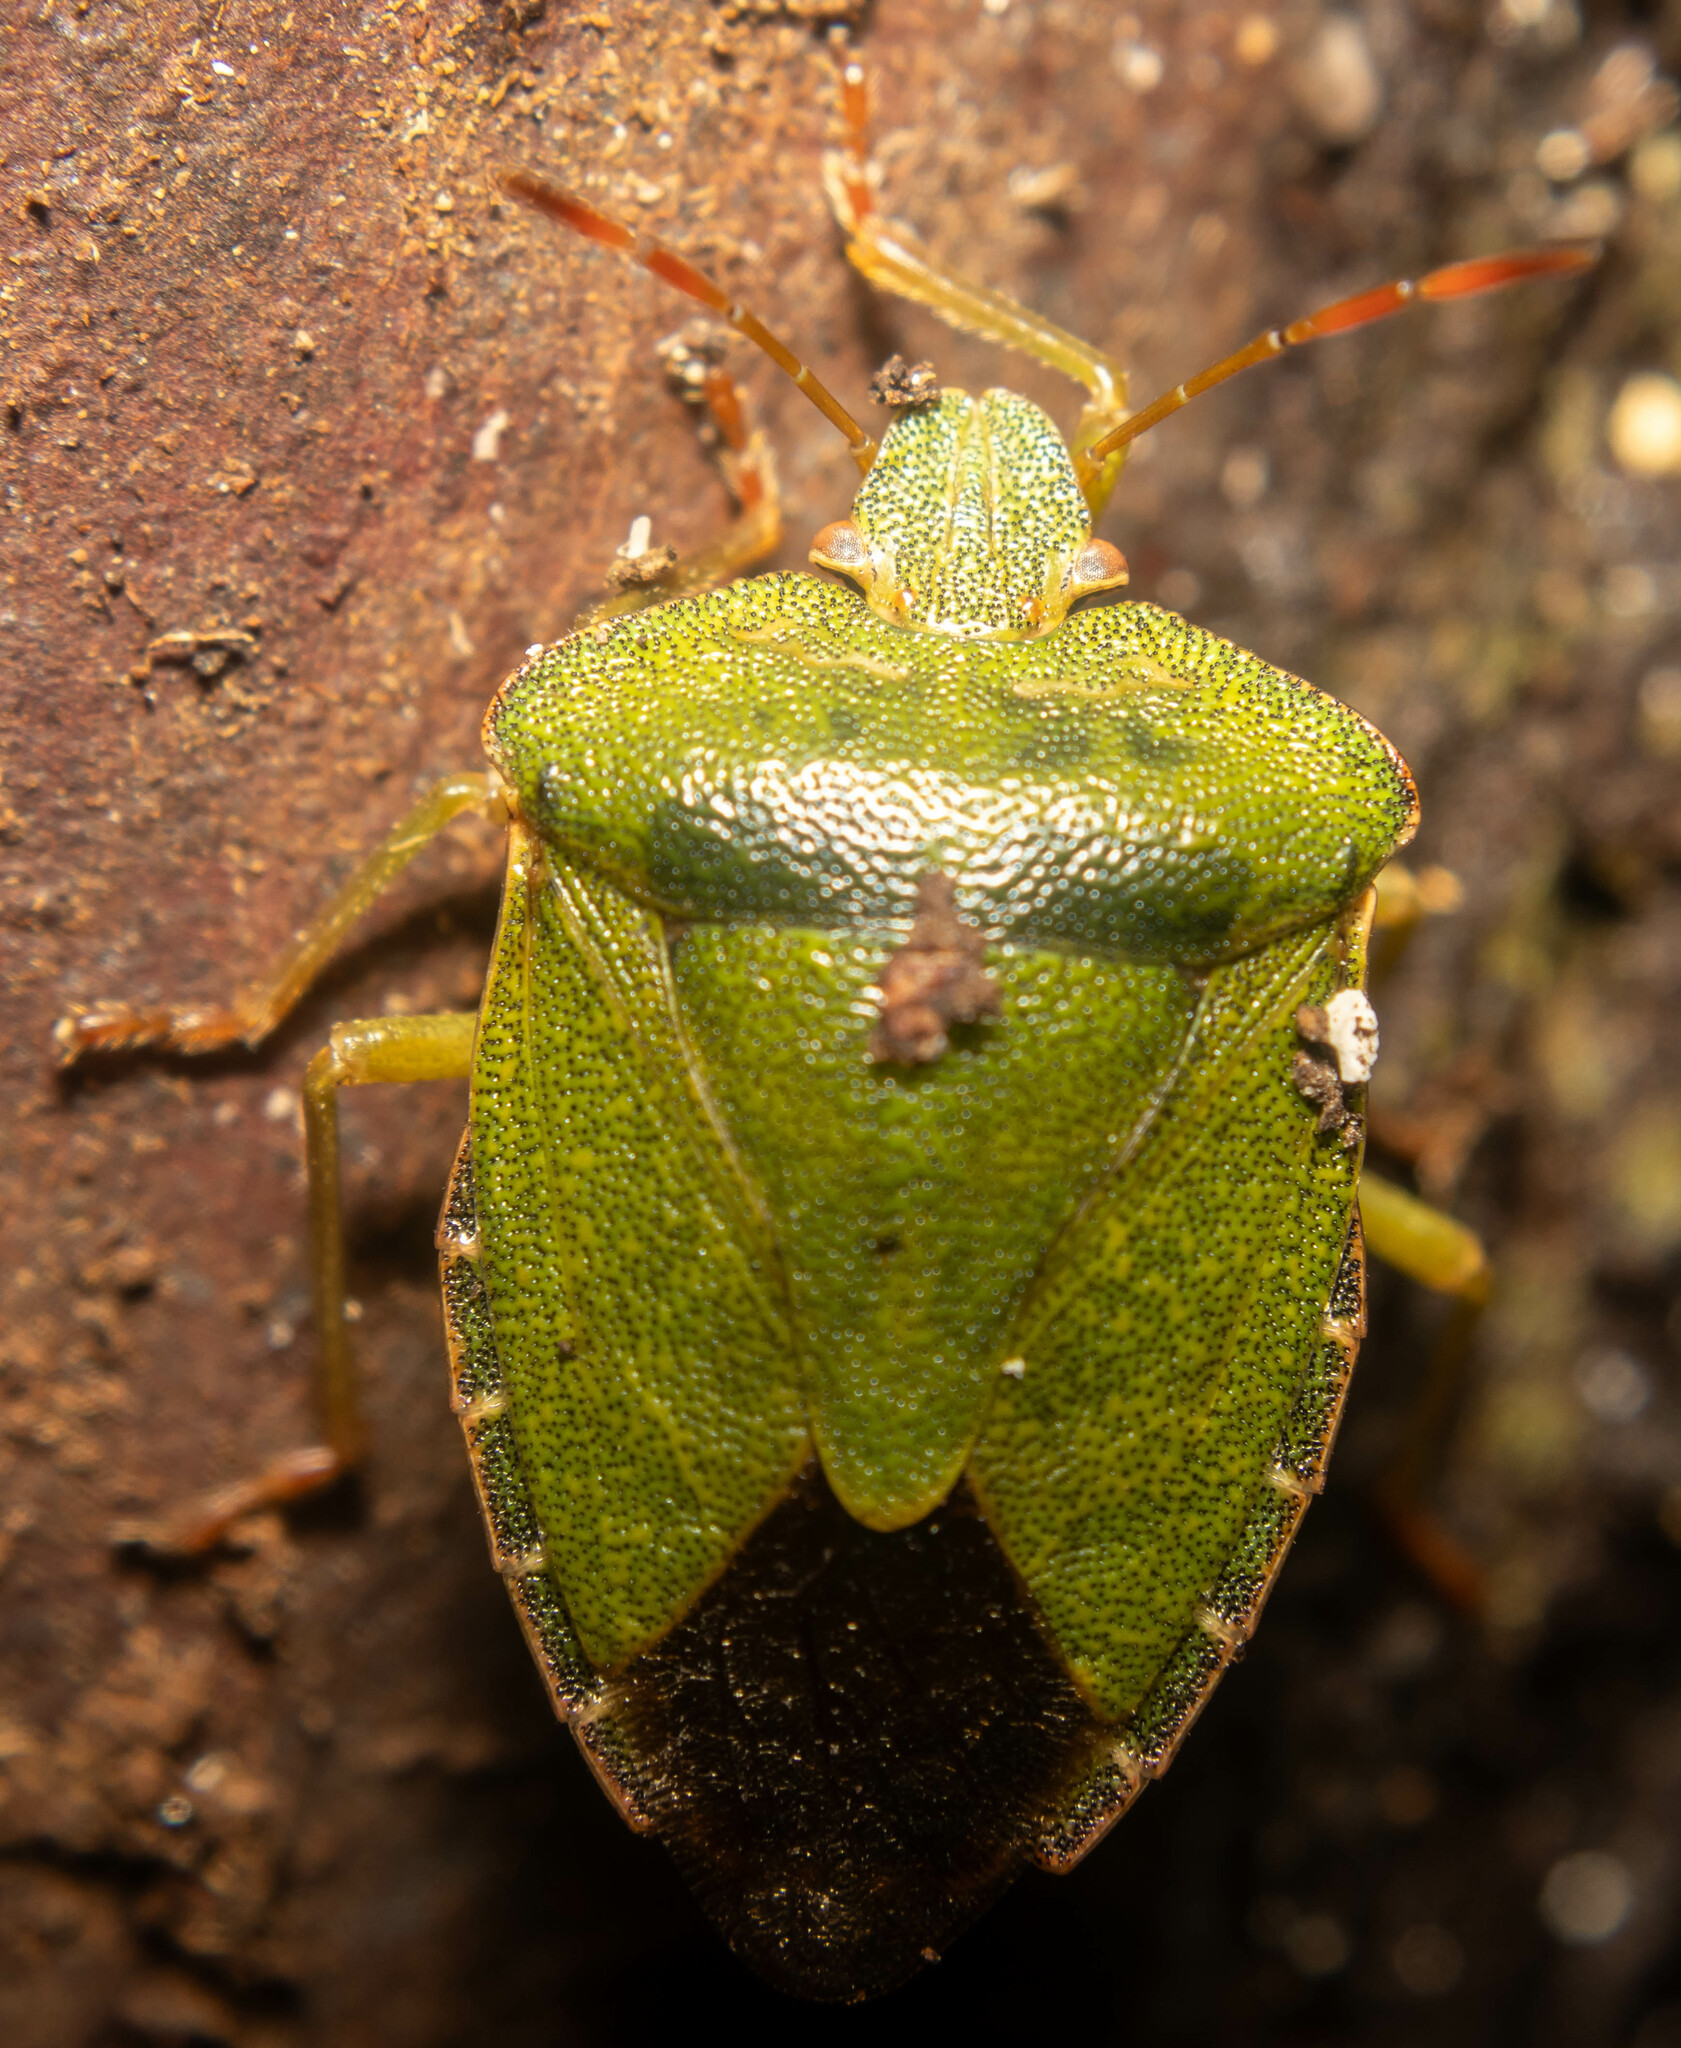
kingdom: Animalia
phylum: Arthropoda
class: Insecta
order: Hemiptera
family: Pentatomidae
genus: Palomena
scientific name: Palomena prasina
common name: Green shieldbug
